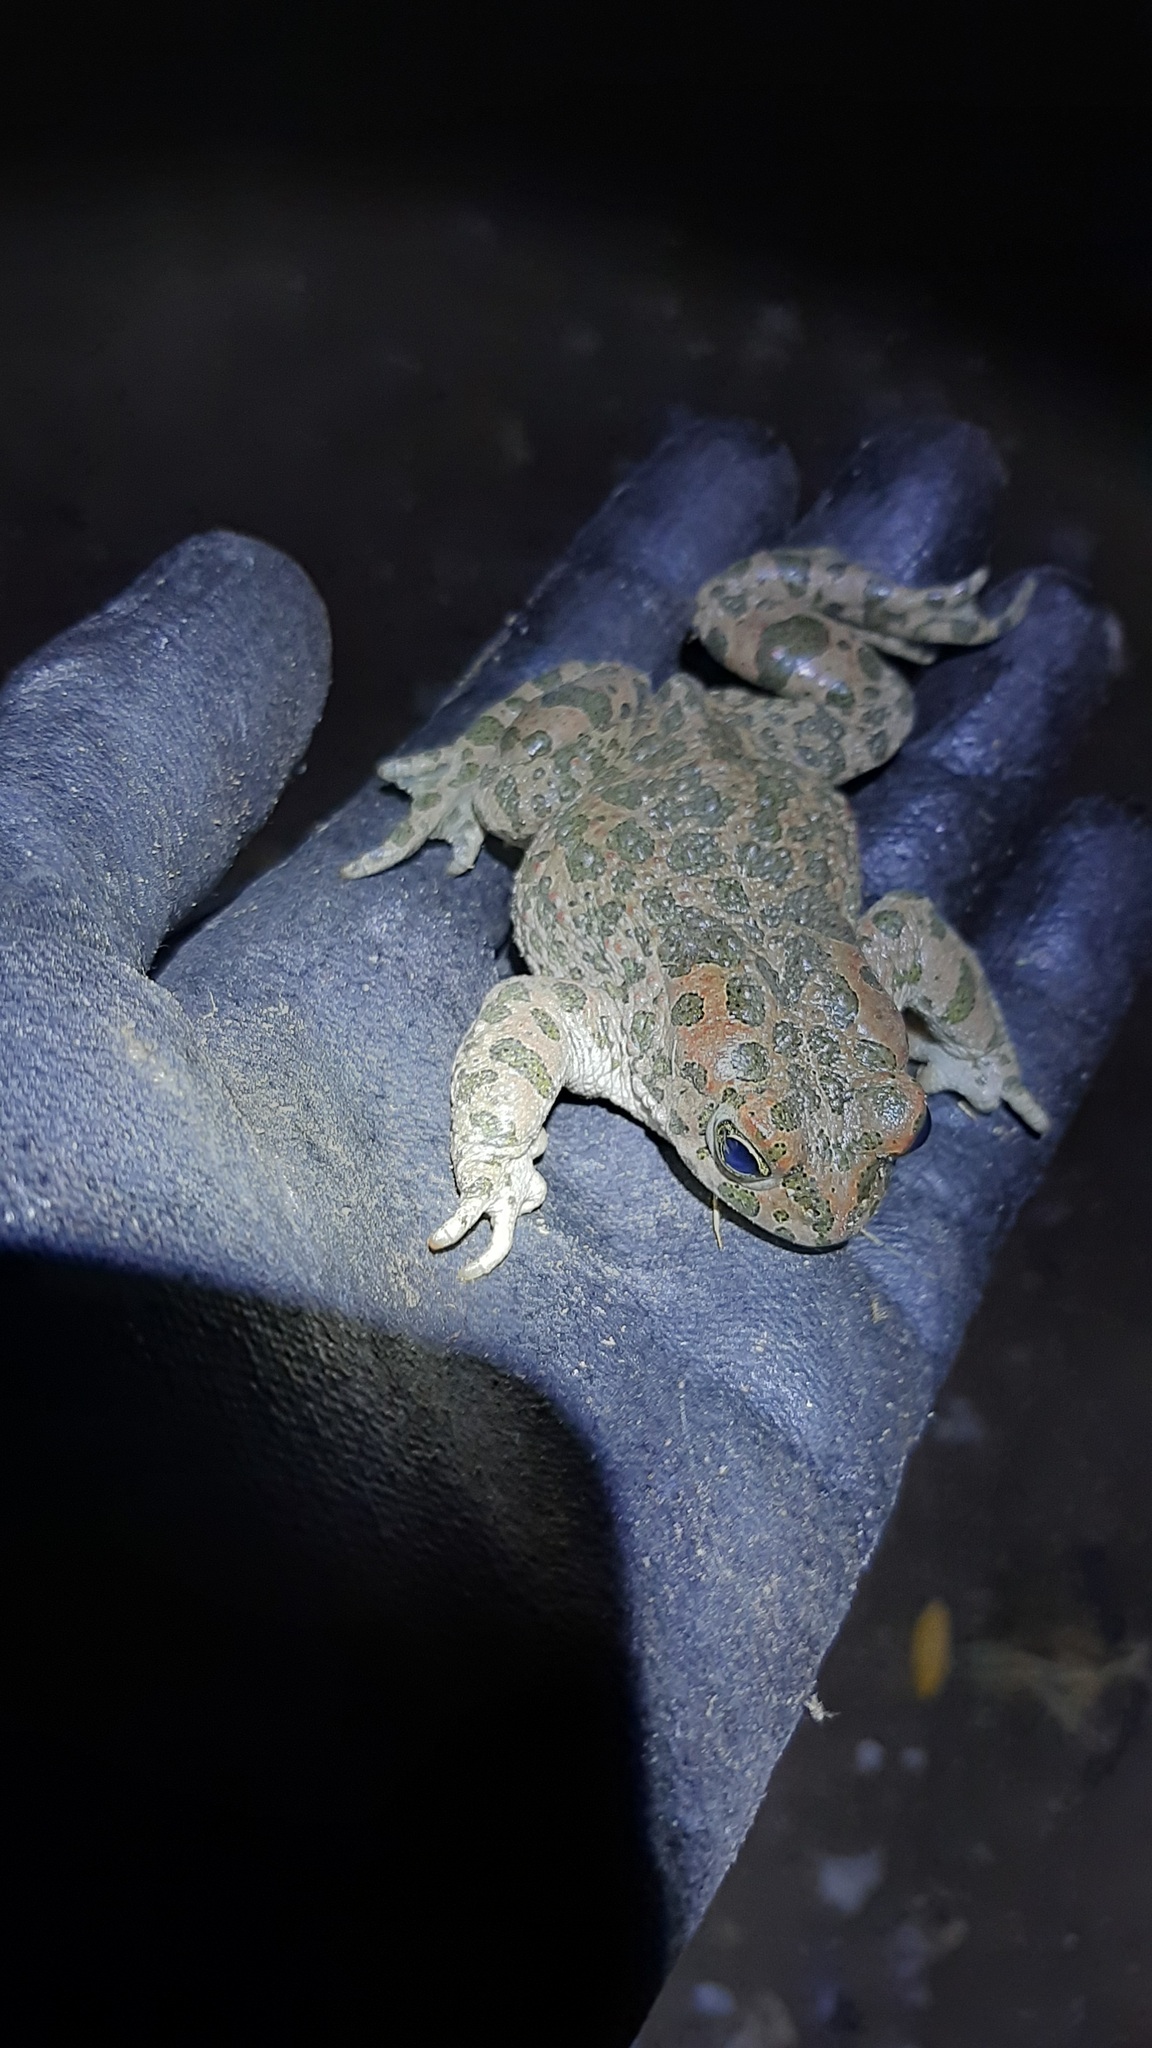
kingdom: Animalia
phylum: Chordata
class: Amphibia
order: Anura
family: Bufonidae
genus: Bufotes
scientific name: Bufotes viridis
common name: European green toad
